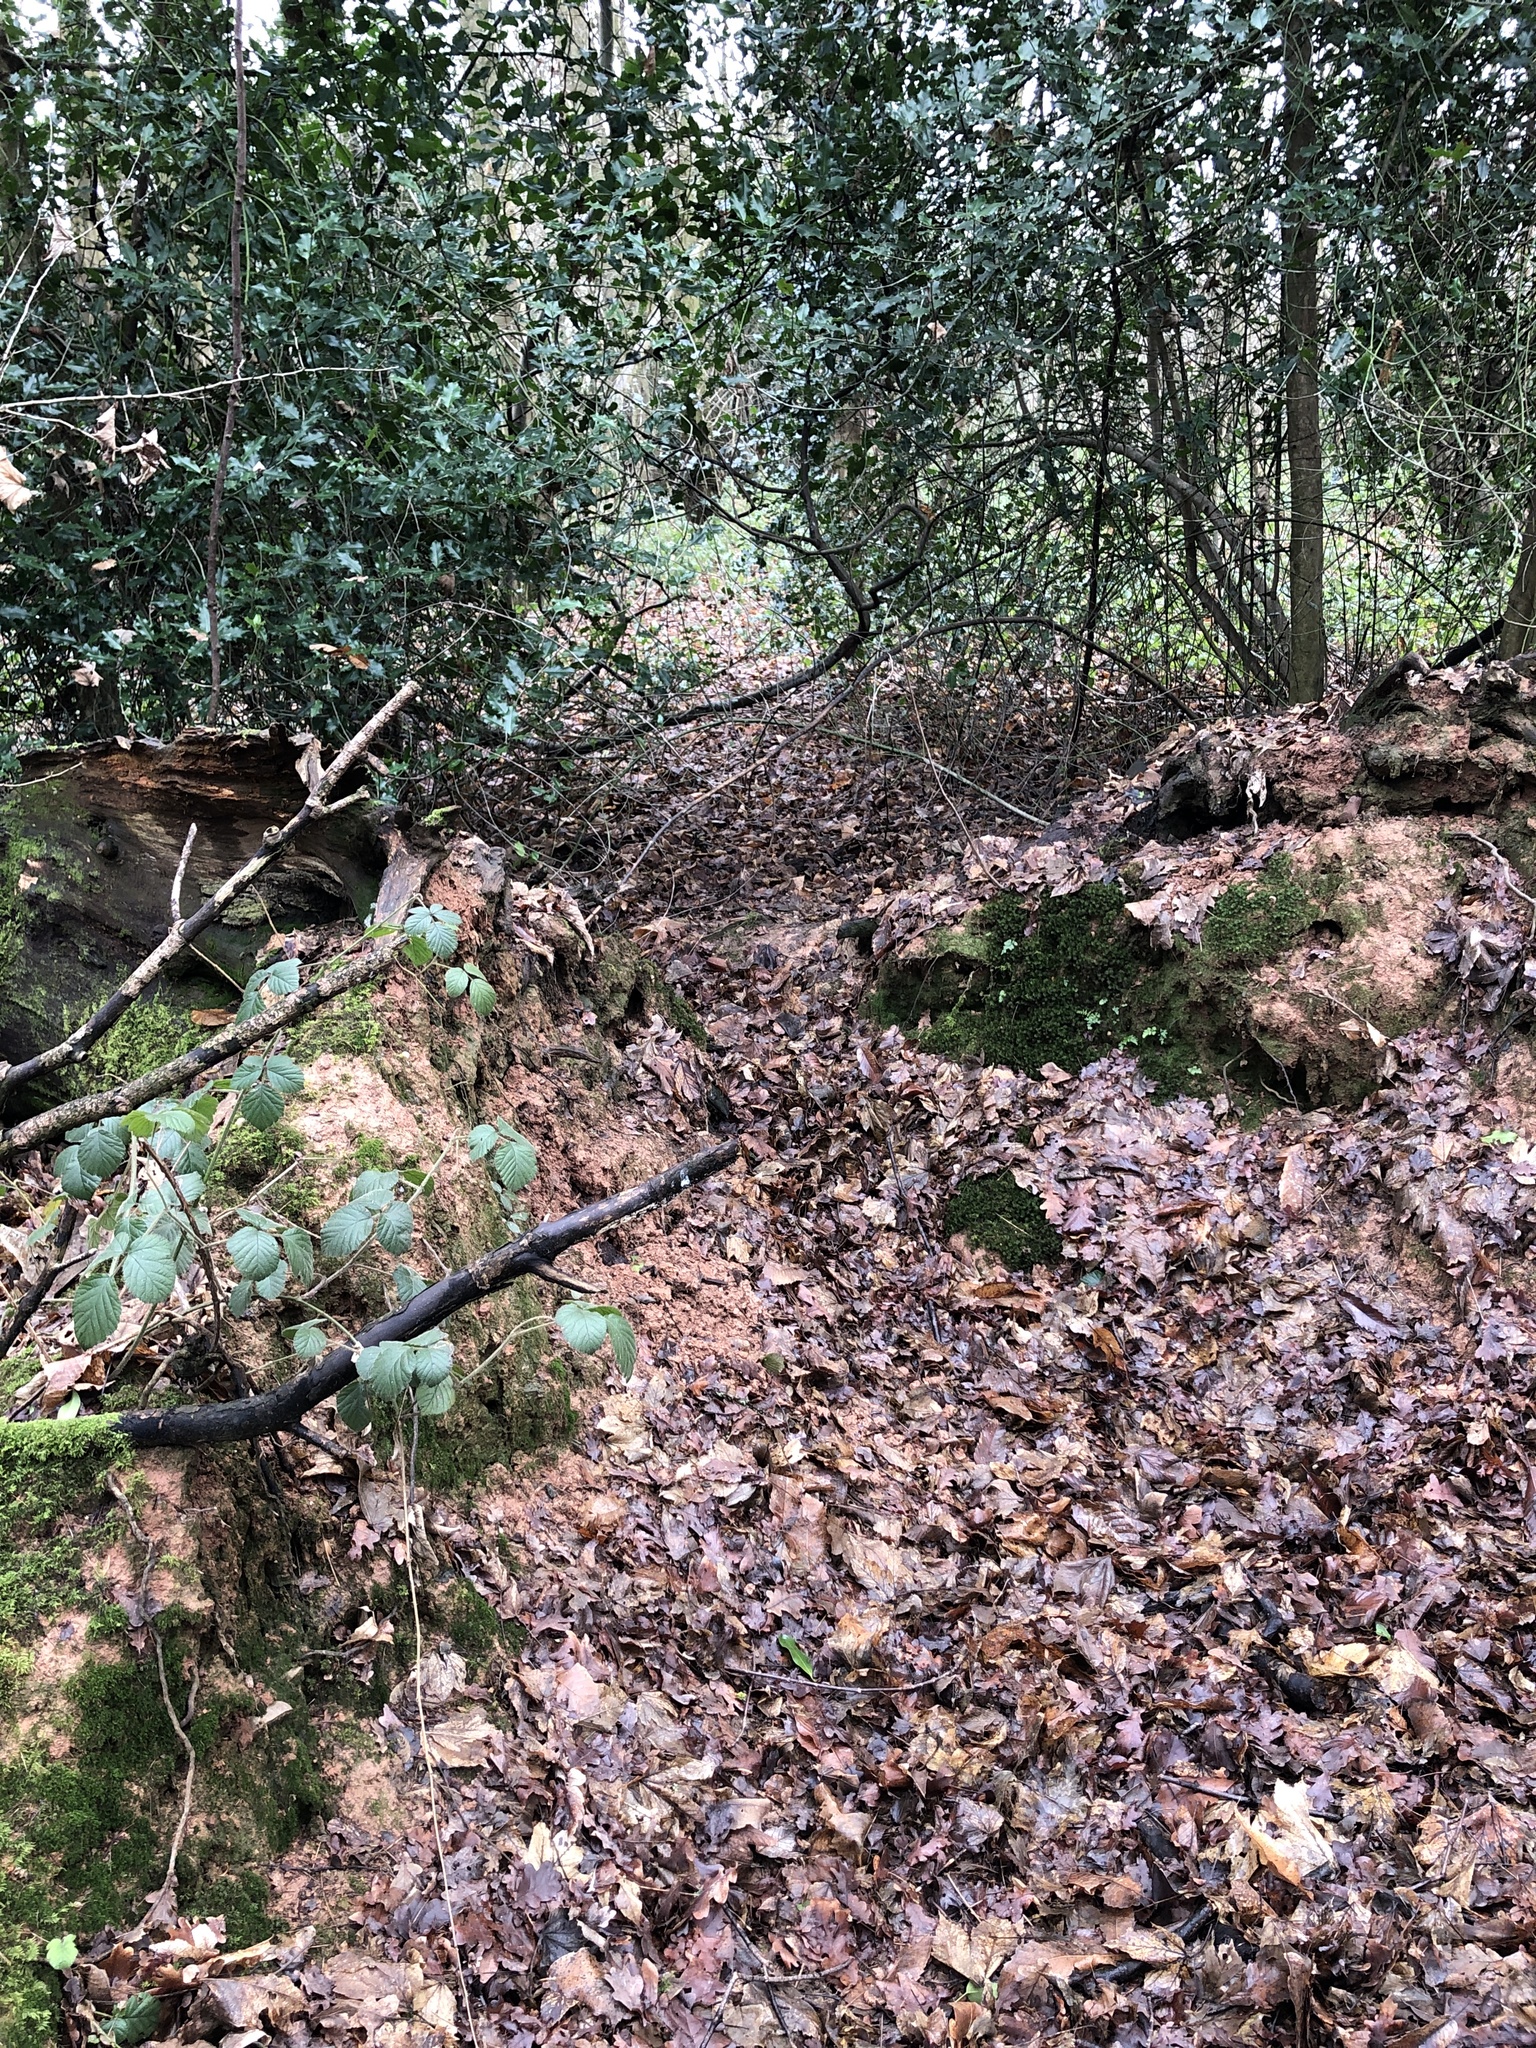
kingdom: Plantae
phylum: Marchantiophyta
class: Jungermanniopsida
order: Jungermanniales
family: Calypogeiaceae
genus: Asperifolia
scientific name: Asperifolia arguta
